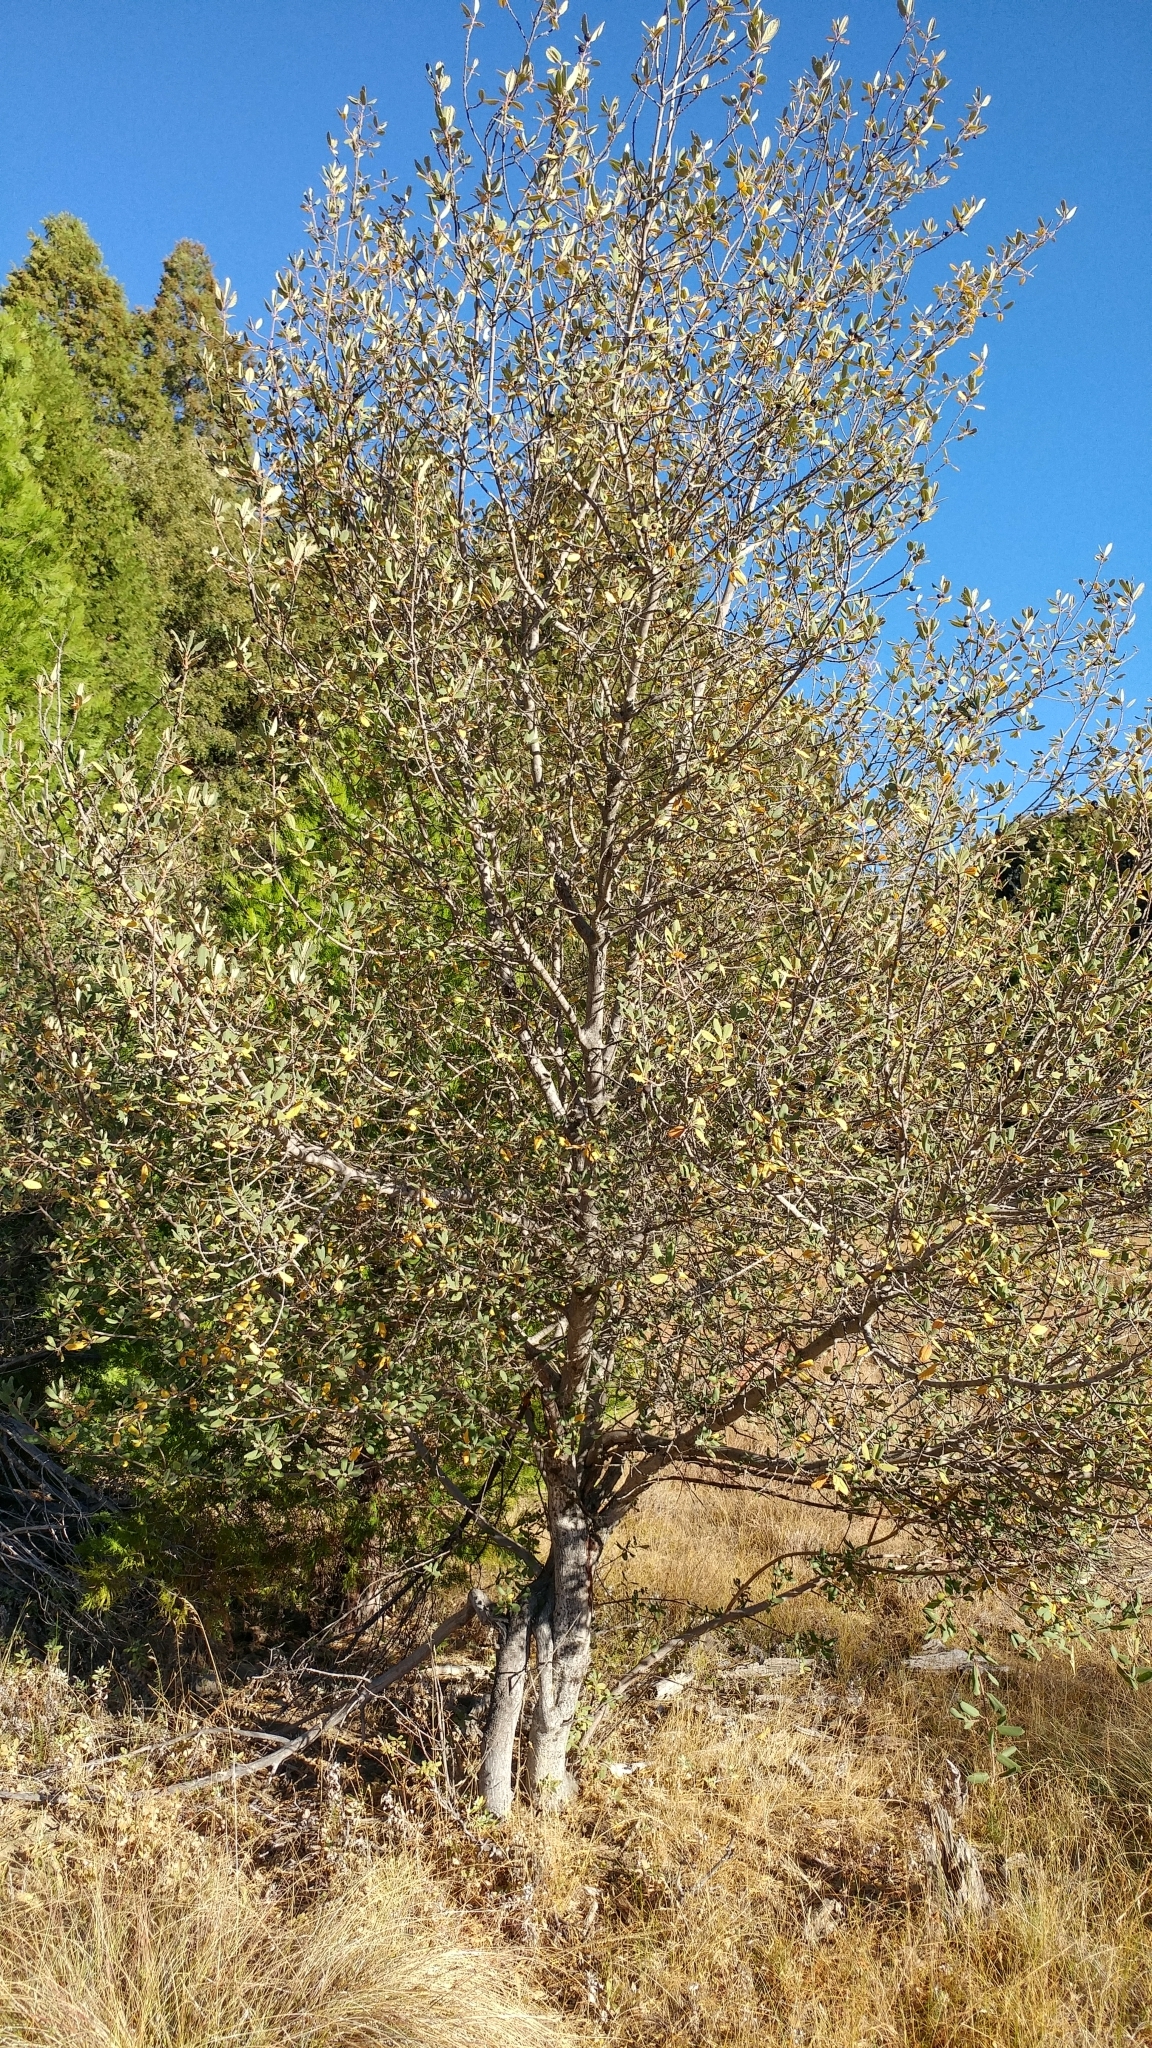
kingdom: Plantae
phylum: Tracheophyta
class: Magnoliopsida
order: Rosales
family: Rhamnaceae
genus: Frangula
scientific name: Frangula californica
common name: California buckthorn
